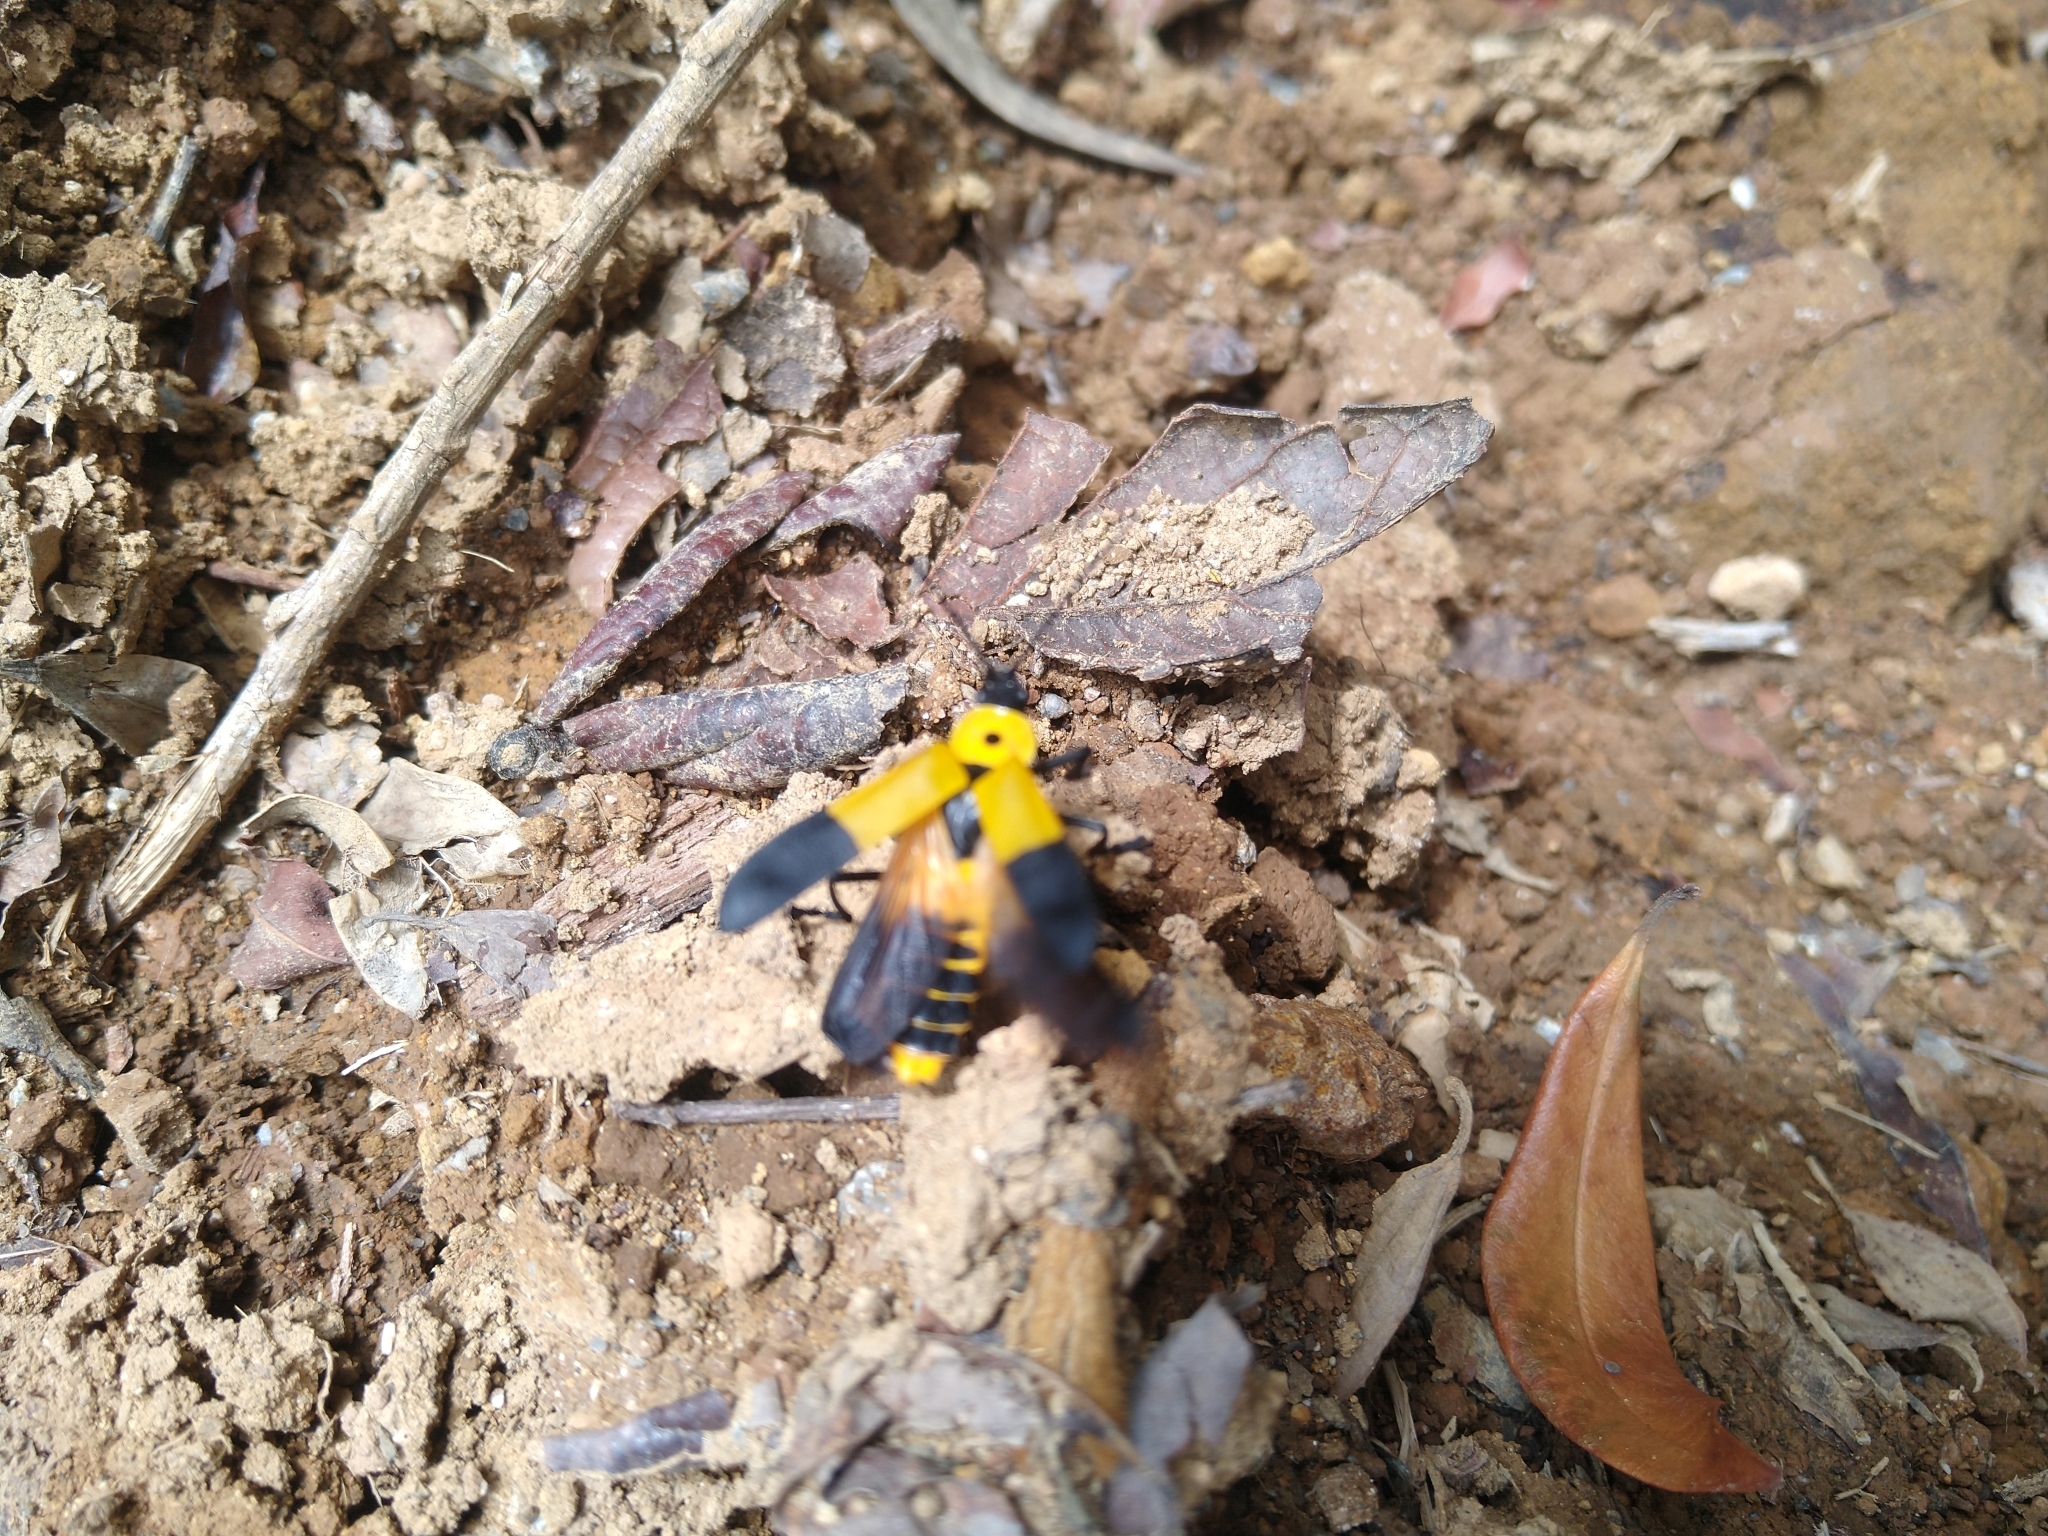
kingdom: Animalia
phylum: Arthropoda
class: Insecta
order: Coleoptera
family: Cantharidae
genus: Chauliognathus
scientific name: Chauliognathus
